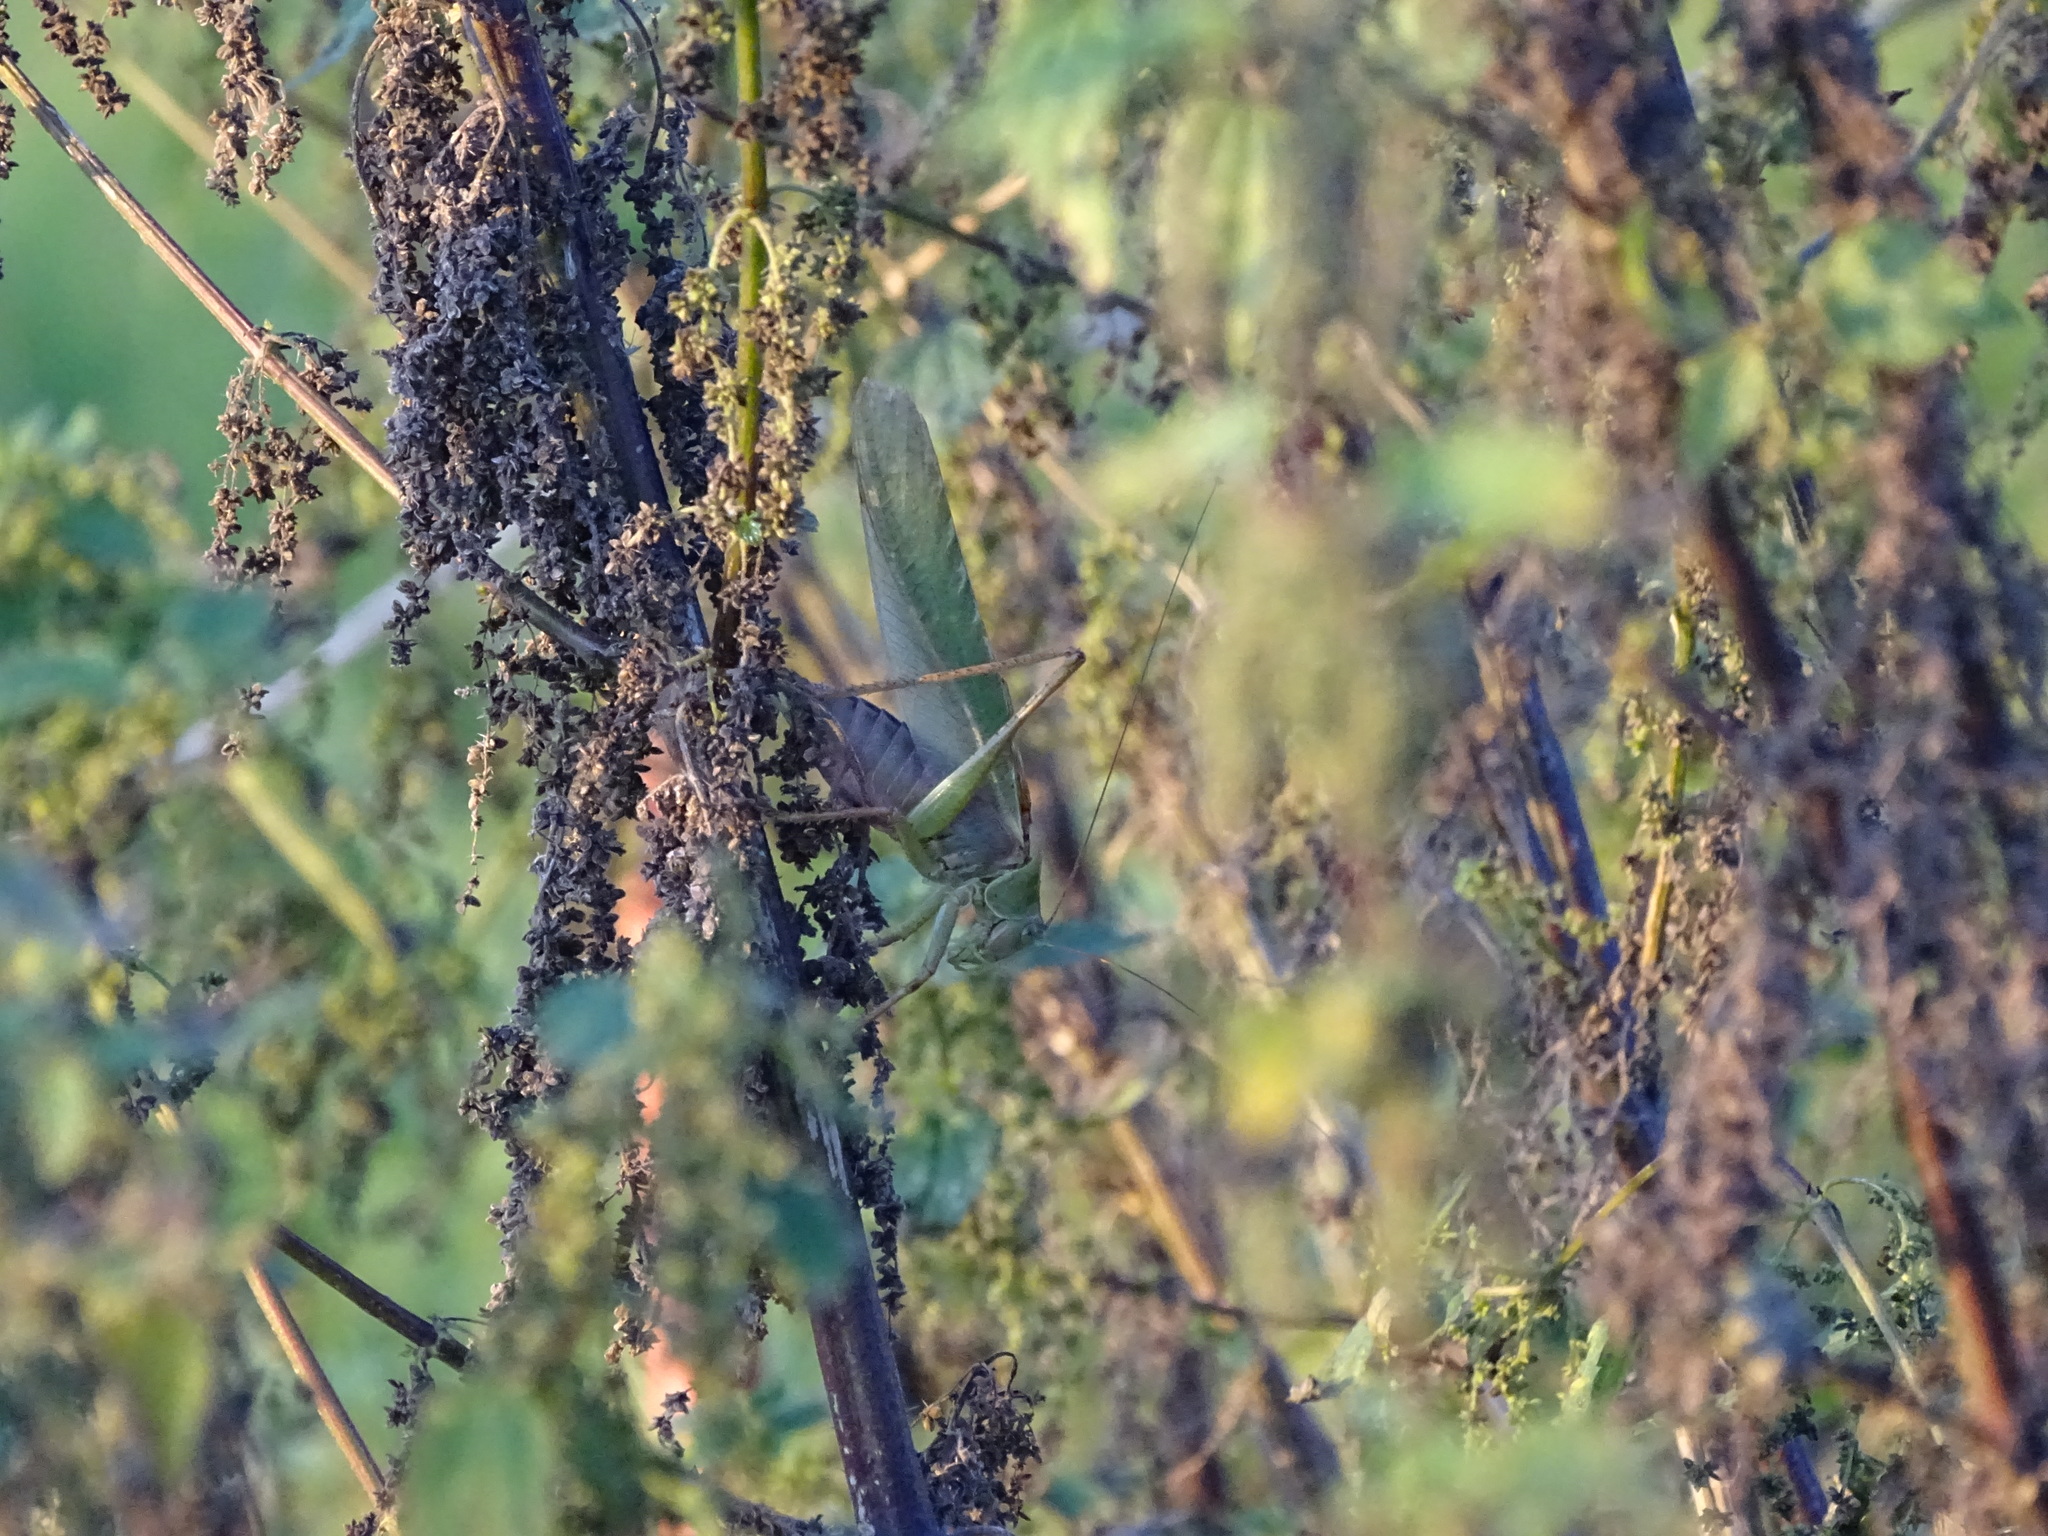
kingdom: Animalia
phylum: Arthropoda
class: Insecta
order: Orthoptera
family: Tettigoniidae
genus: Tettigonia
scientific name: Tettigonia viridissima
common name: Great green bush-cricket
